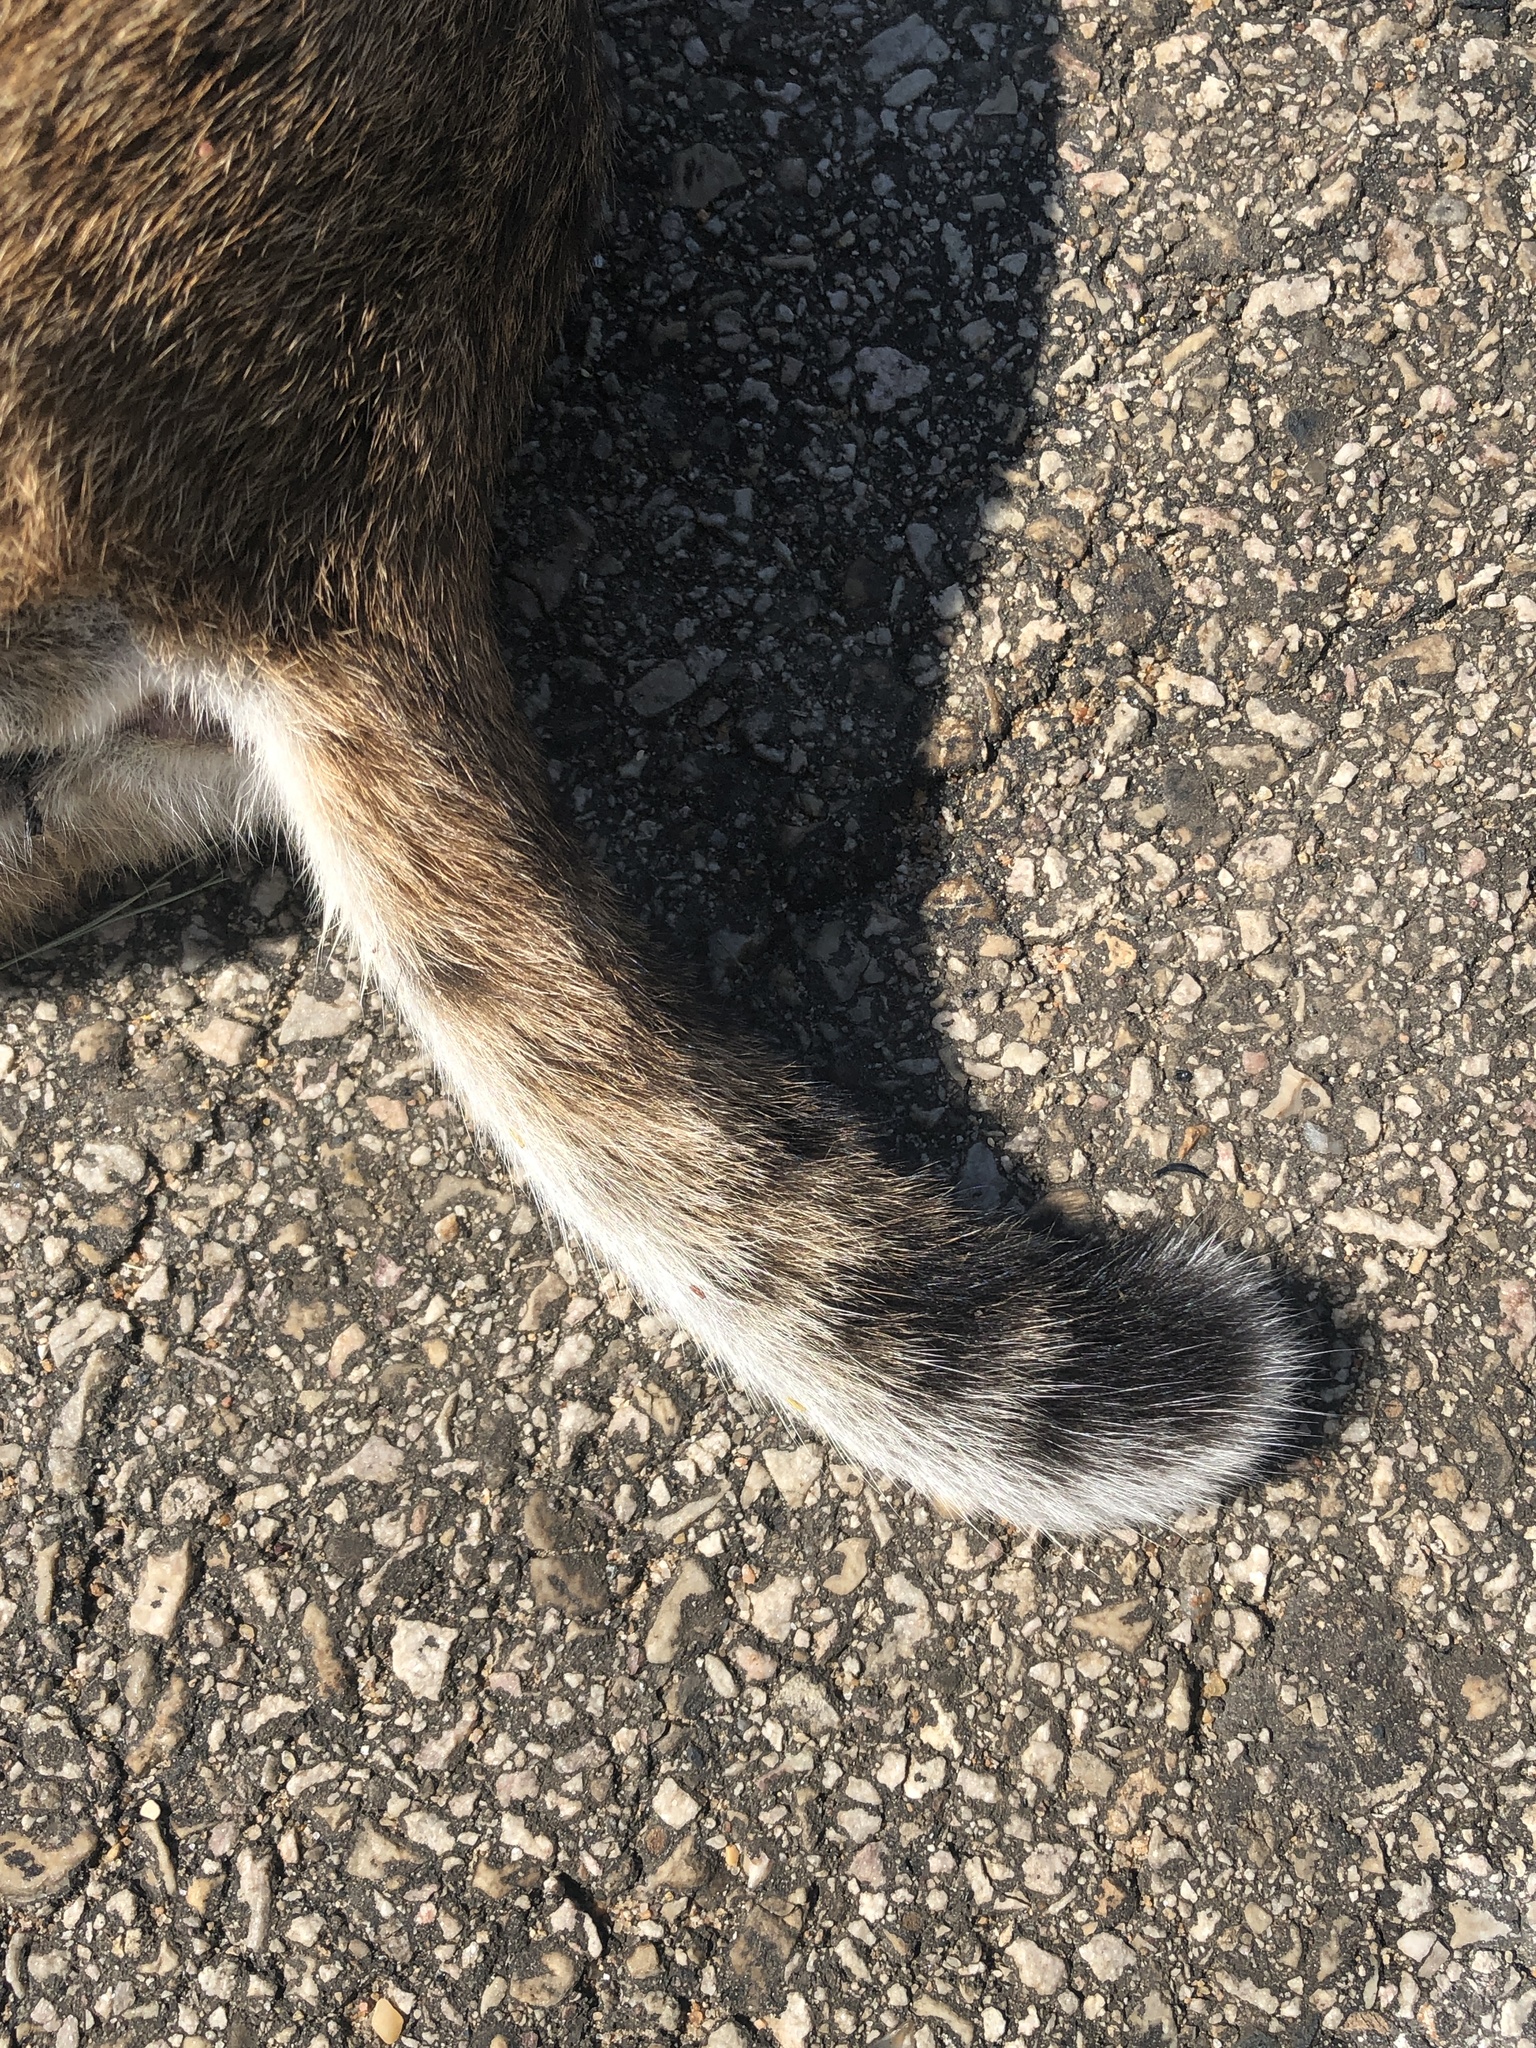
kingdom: Animalia
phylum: Chordata
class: Mammalia
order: Carnivora
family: Felidae
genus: Lynx
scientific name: Lynx rufus
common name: Bobcat
